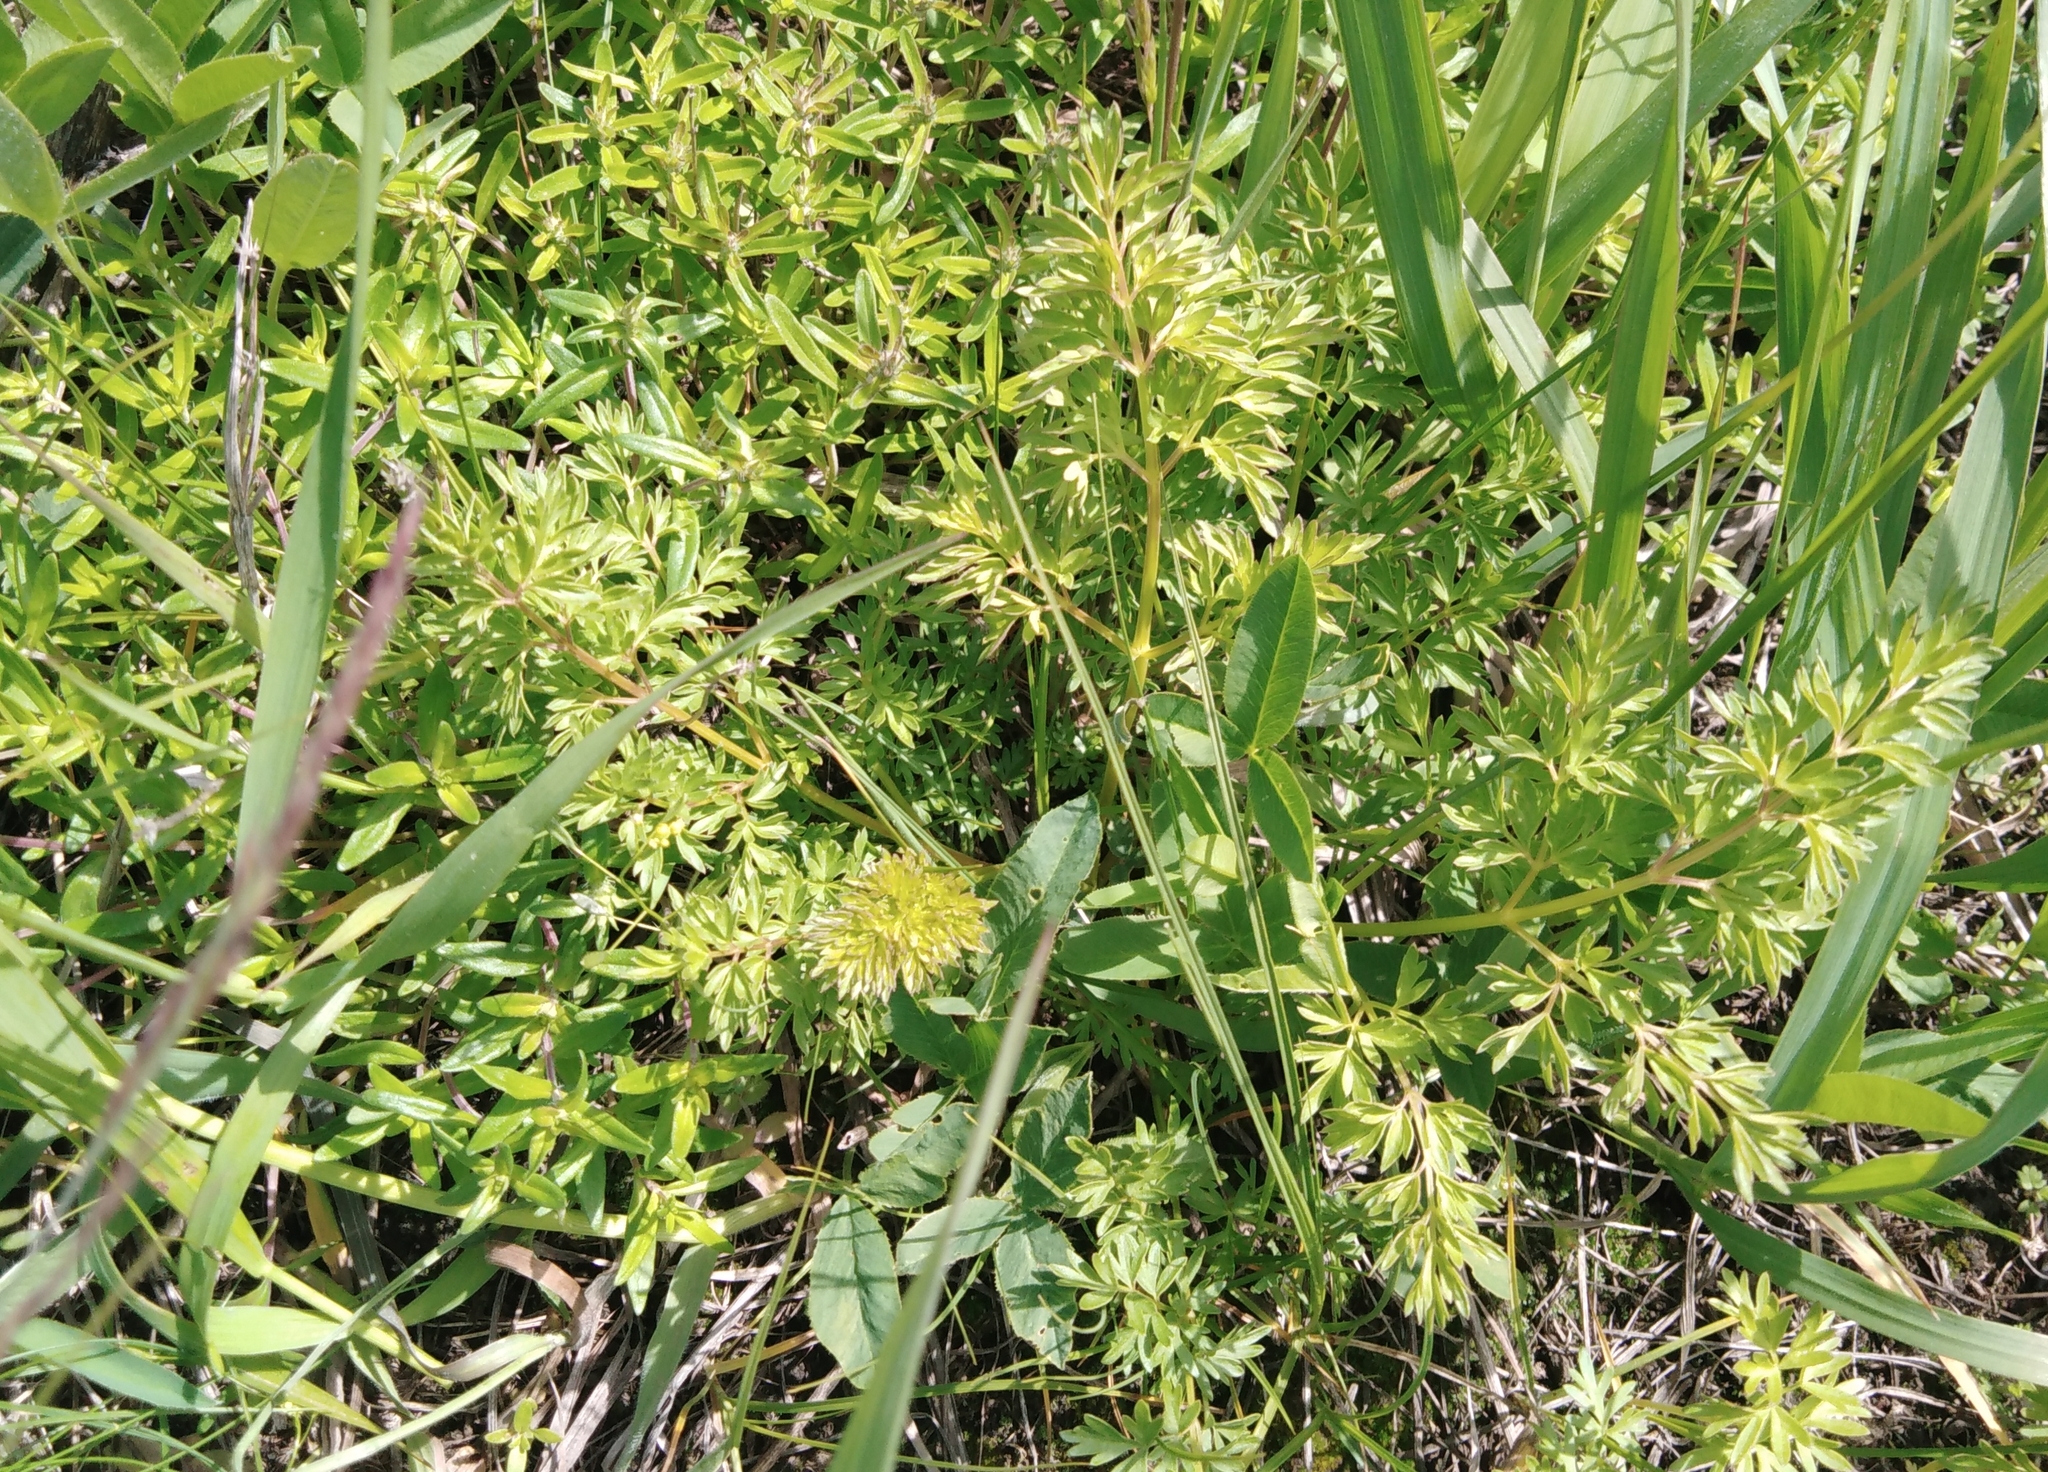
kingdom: Plantae
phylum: Tracheophyta
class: Magnoliopsida
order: Apiales
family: Apiaceae
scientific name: Apiaceae
